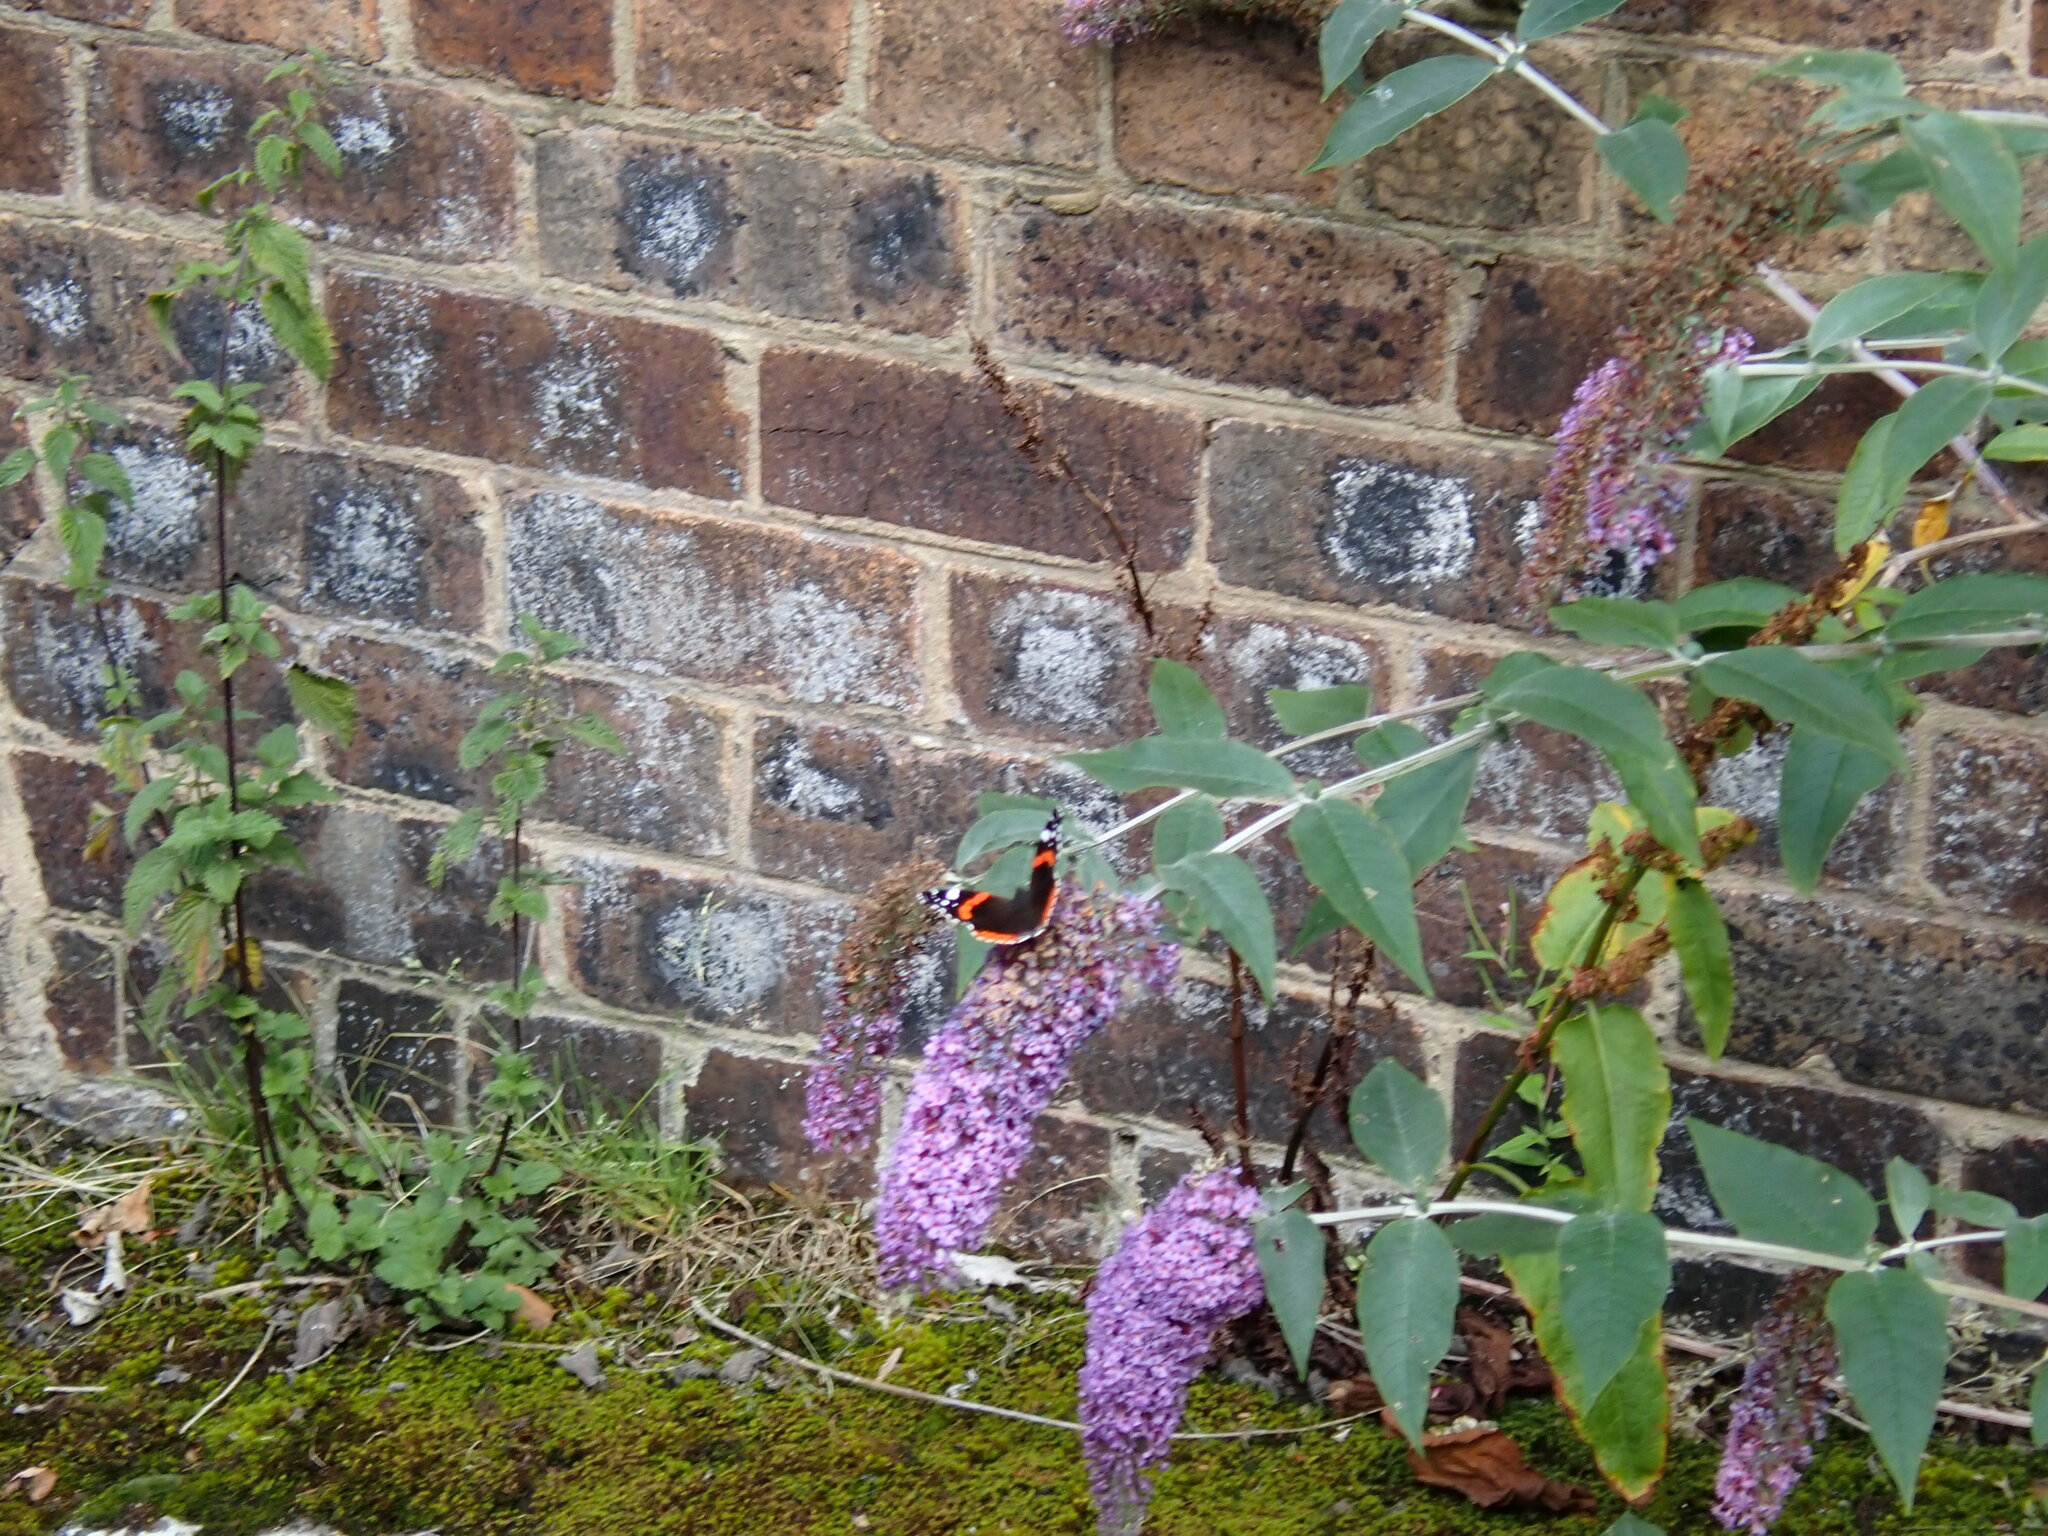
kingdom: Animalia
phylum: Arthropoda
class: Insecta
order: Lepidoptera
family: Nymphalidae
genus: Vanessa
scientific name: Vanessa atalanta
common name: Red admiral
